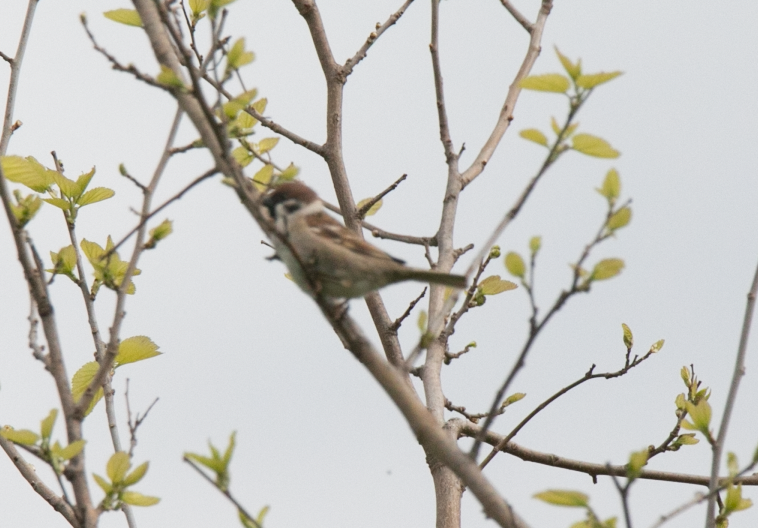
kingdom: Animalia
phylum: Chordata
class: Aves
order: Passeriformes
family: Passeridae
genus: Passer
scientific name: Passer montanus
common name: Eurasian tree sparrow
